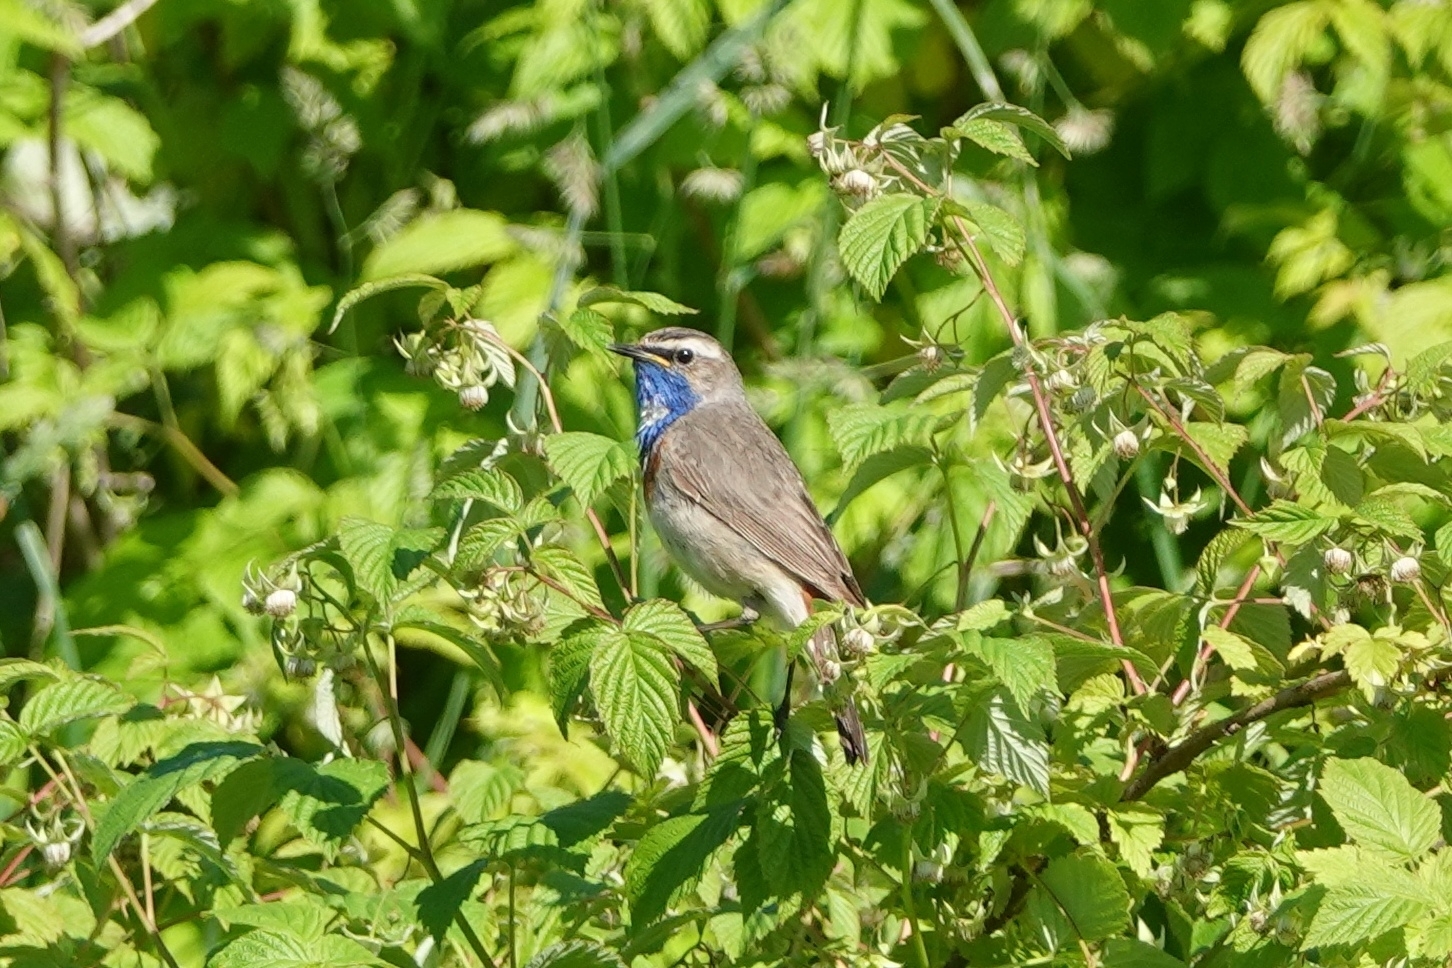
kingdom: Animalia
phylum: Chordata
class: Aves
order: Passeriformes
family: Muscicapidae
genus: Luscinia
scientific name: Luscinia svecica
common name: Bluethroat
